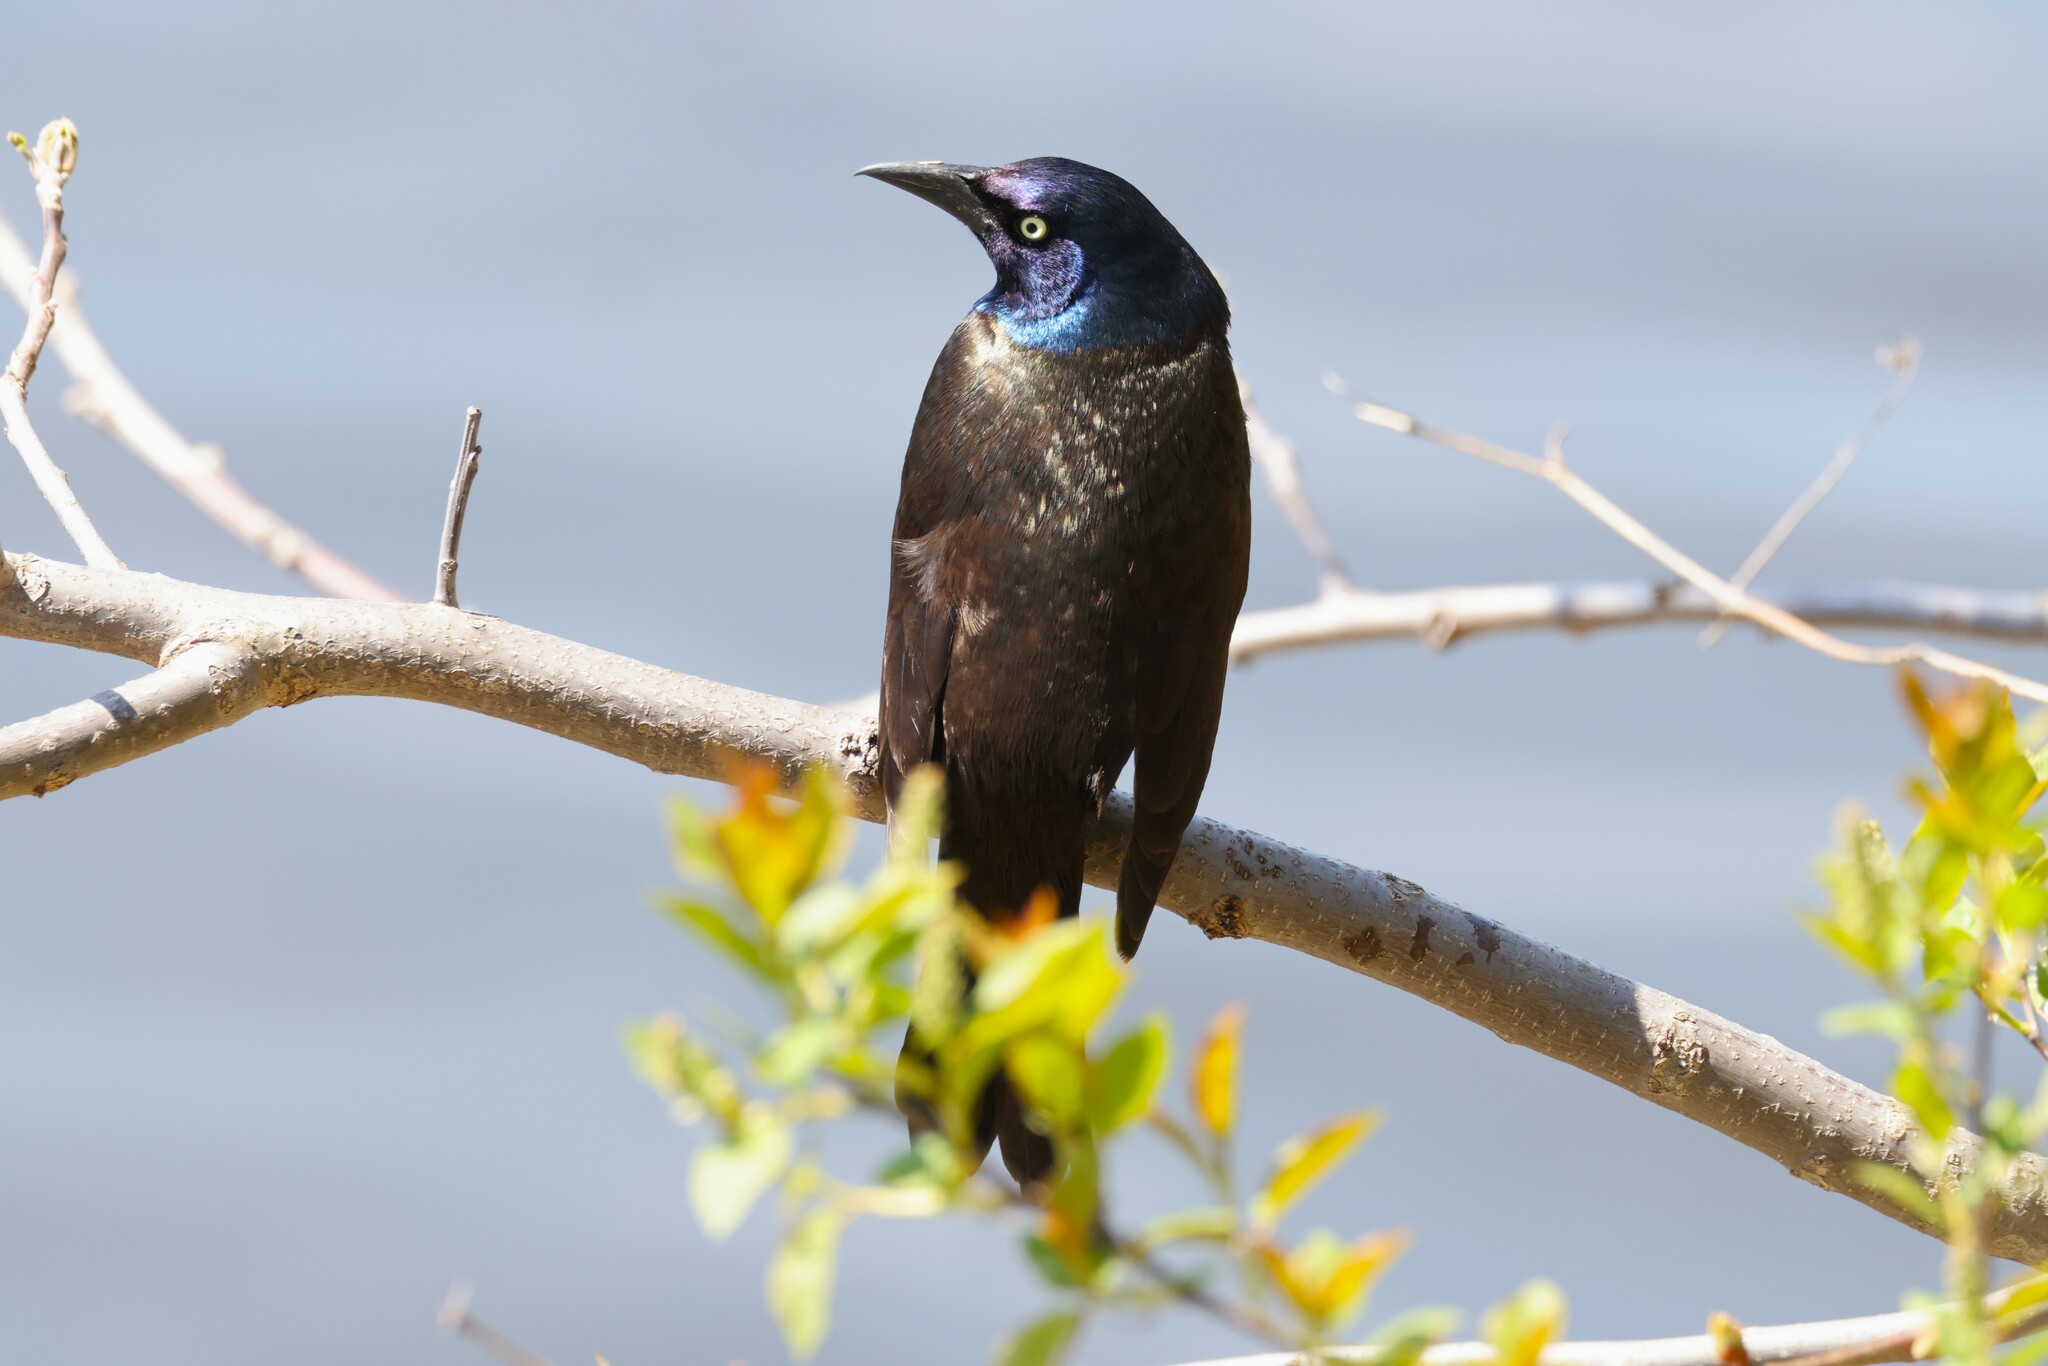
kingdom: Animalia
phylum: Chordata
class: Aves
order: Passeriformes
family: Icteridae
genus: Quiscalus
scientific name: Quiscalus quiscula
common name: Common grackle
